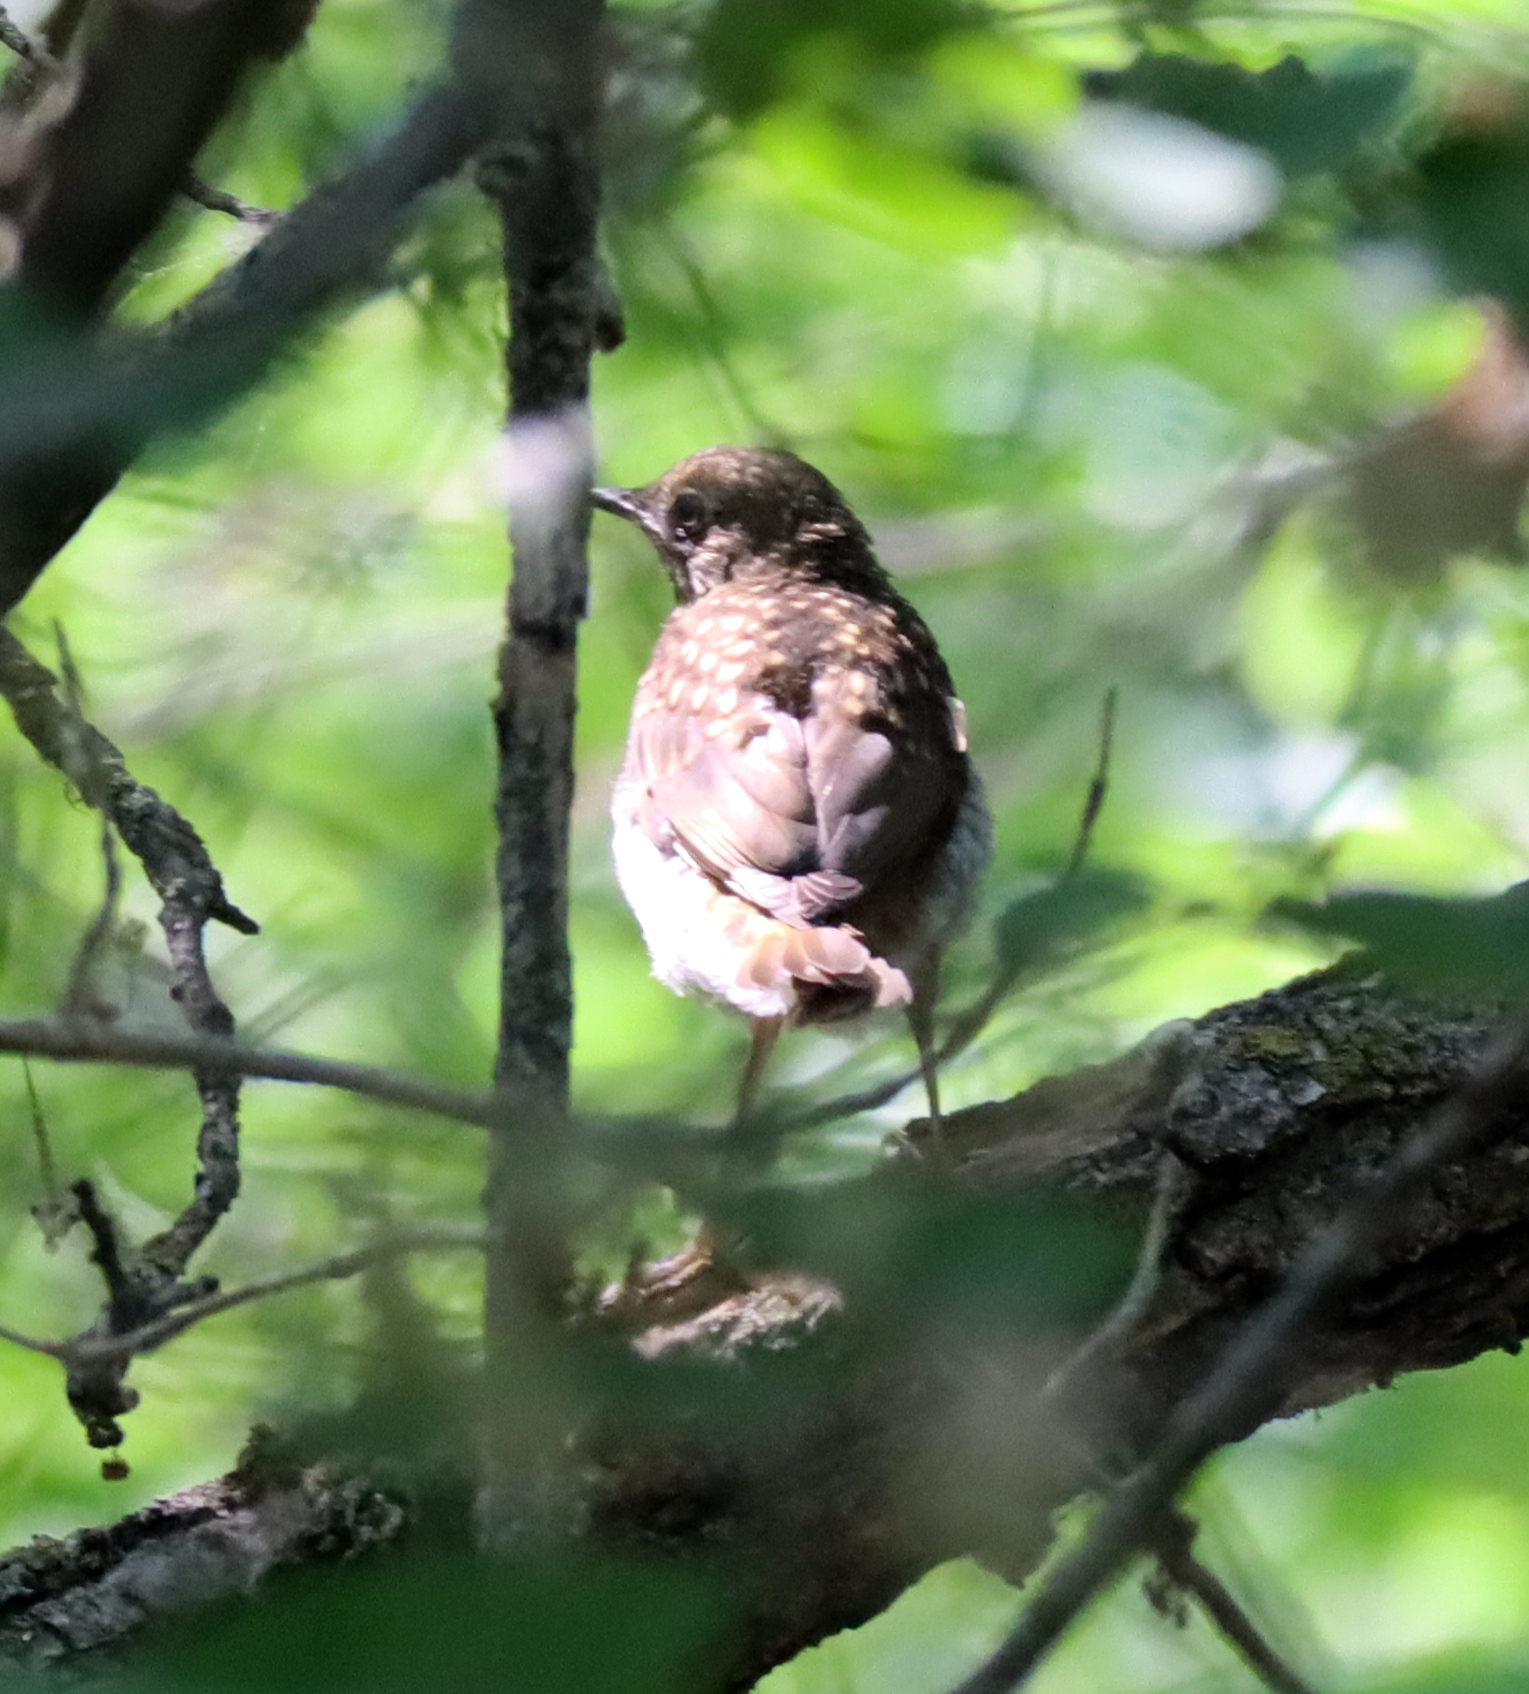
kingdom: Animalia
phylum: Chordata
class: Aves
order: Passeriformes
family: Turdidae
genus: Catharus
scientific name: Catharus guttatus
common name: Hermit thrush
